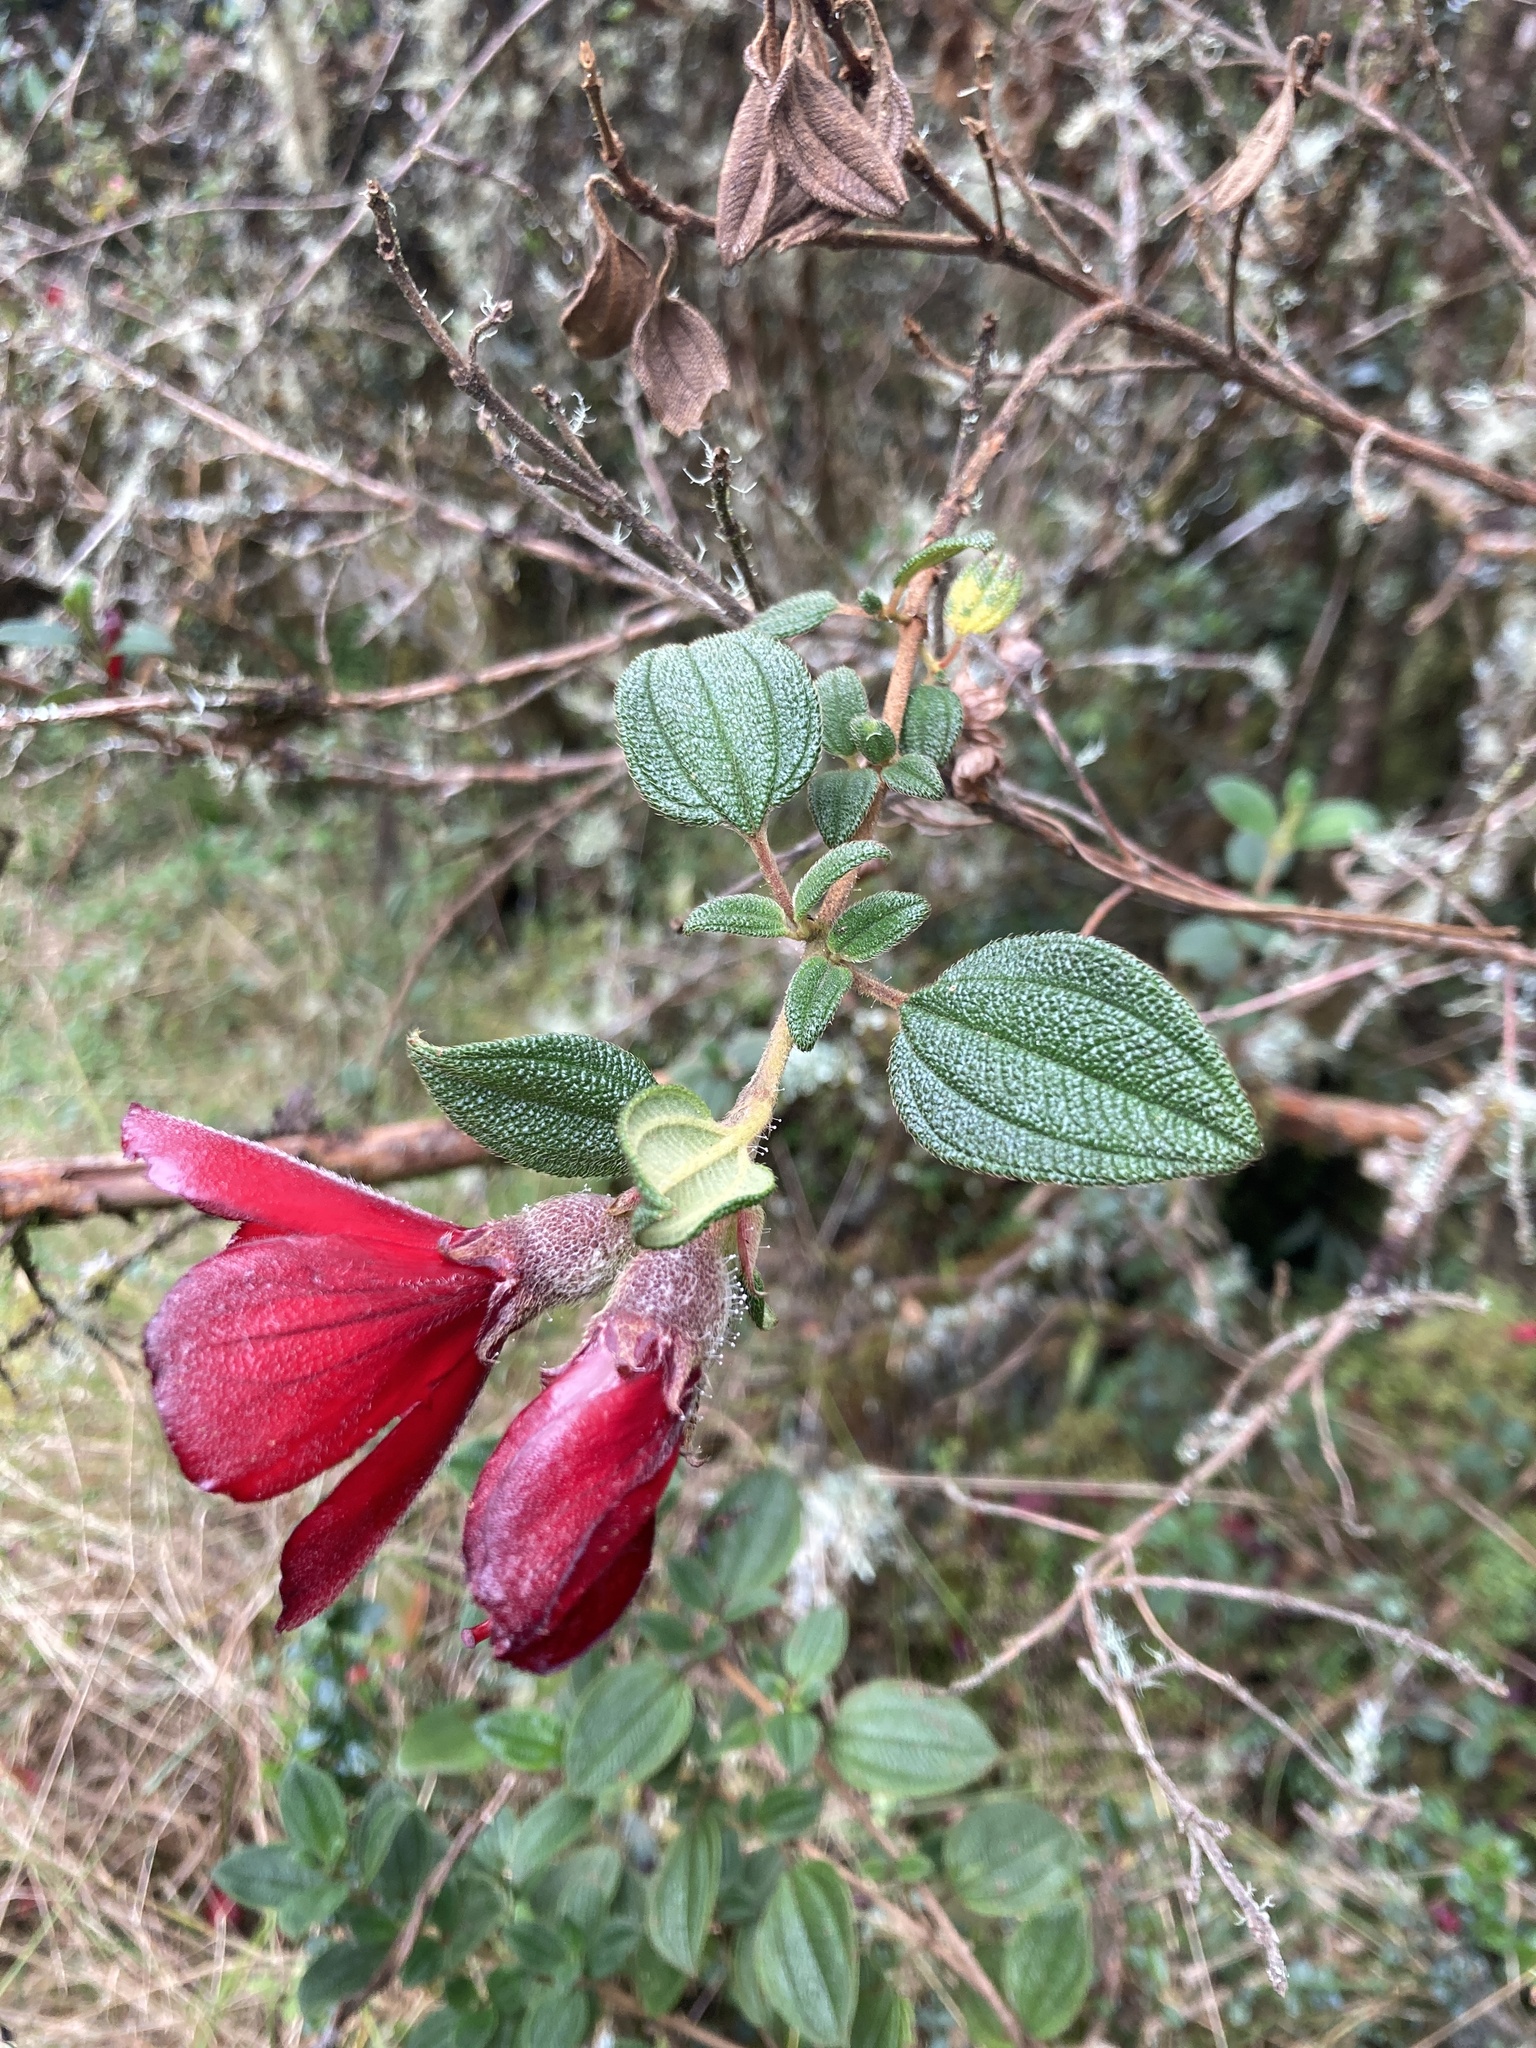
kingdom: Plantae
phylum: Tracheophyta
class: Magnoliopsida
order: Myrtales
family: Melastomataceae
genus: Chaetogastra
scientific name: Chaetogastra grossa
